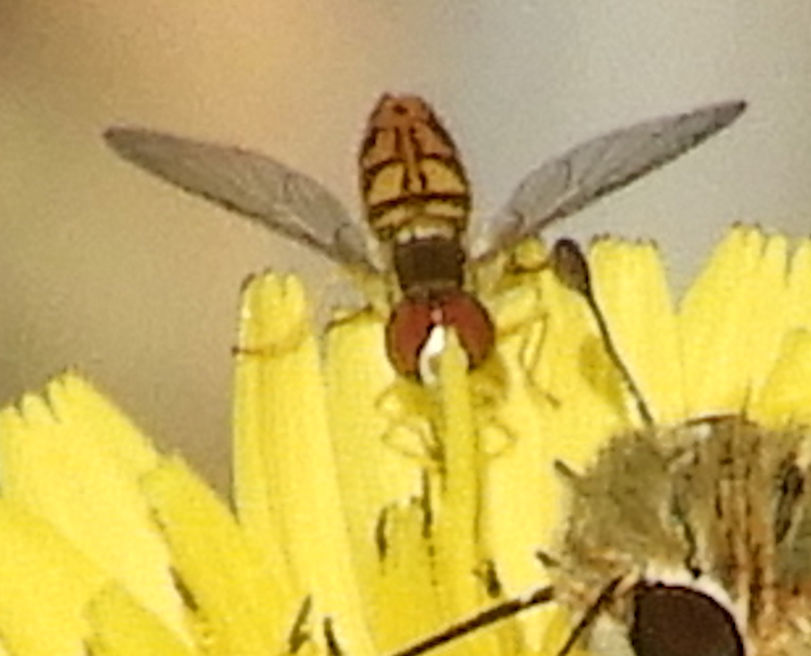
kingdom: Animalia
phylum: Arthropoda
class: Insecta
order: Diptera
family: Syrphidae
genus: Toxomerus
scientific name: Toxomerus marginatus
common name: Syrphid fly
